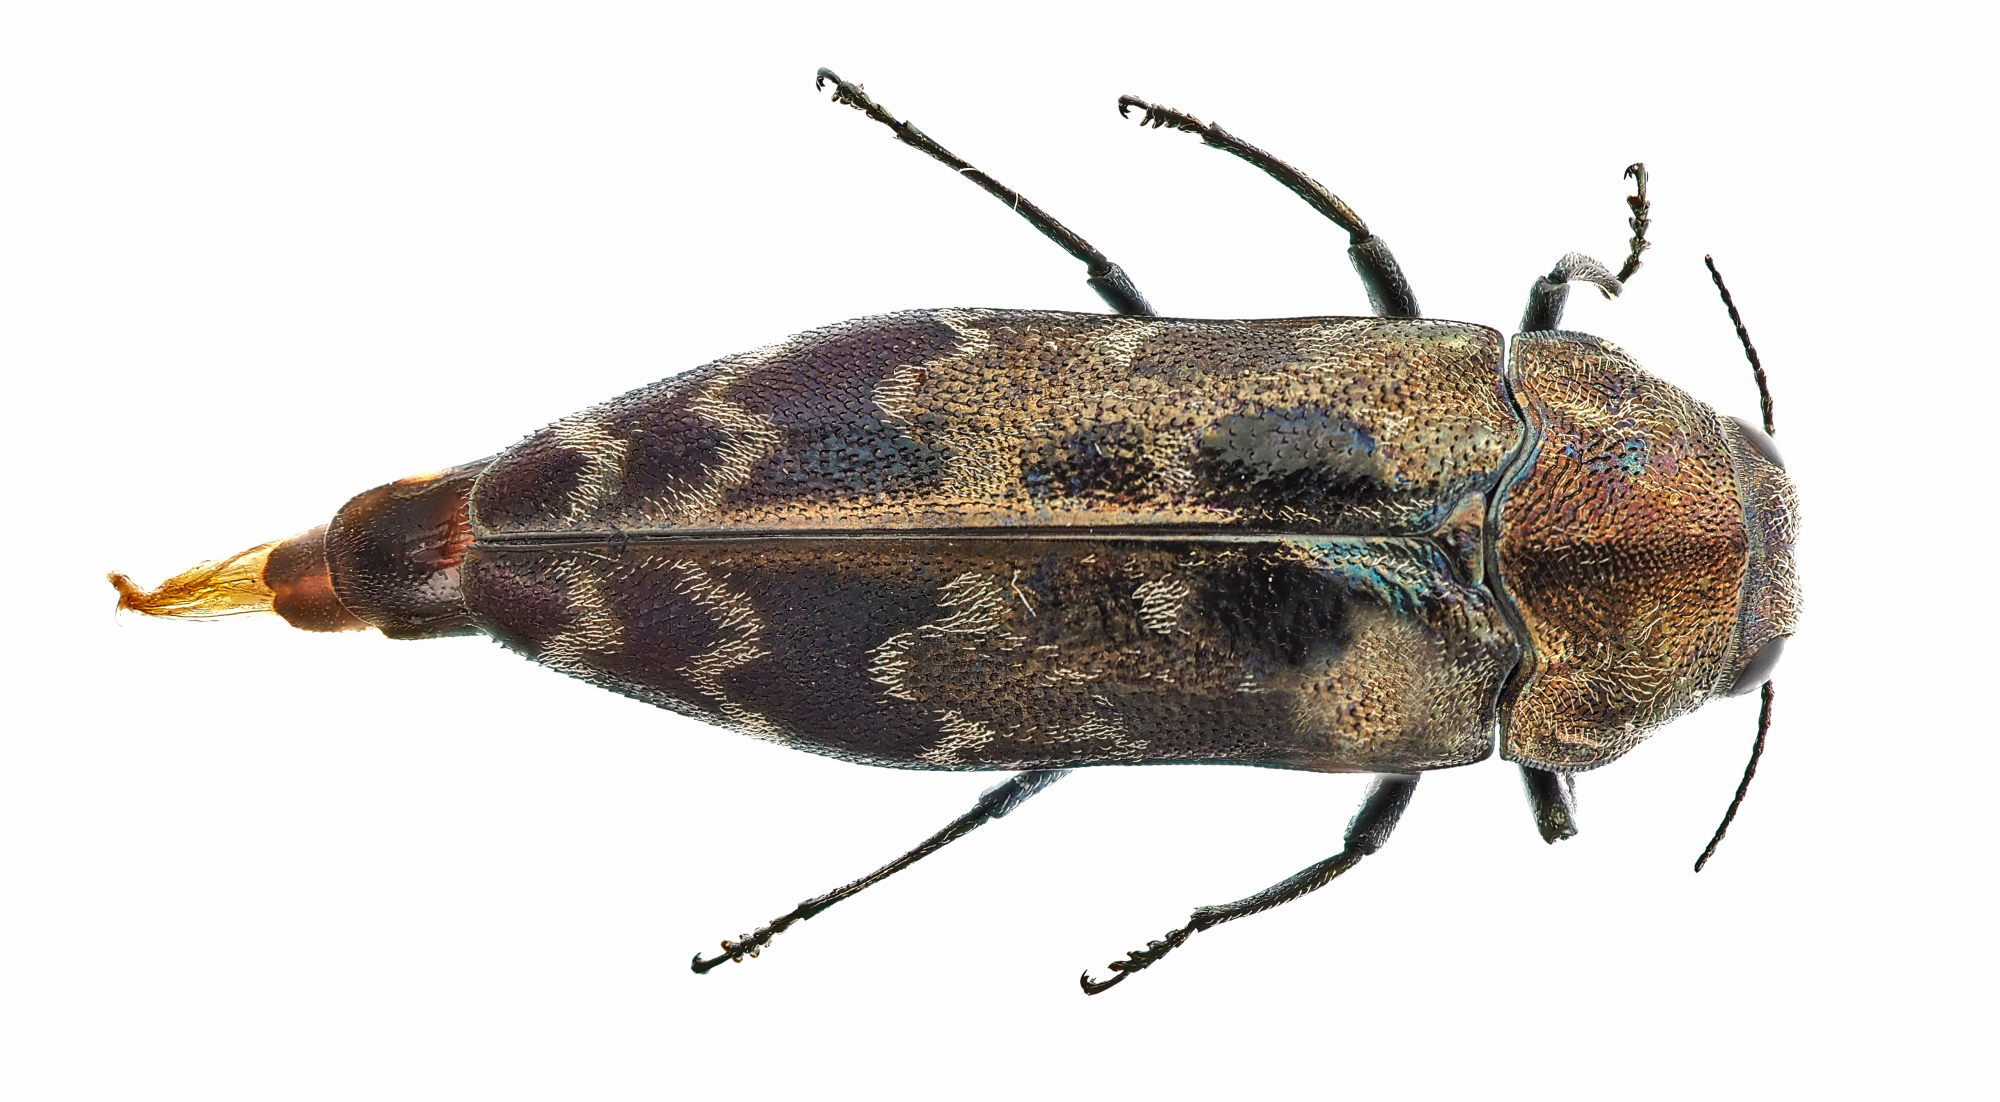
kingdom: Animalia
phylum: Arthropoda
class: Insecta
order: Coleoptera
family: Buprestidae
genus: Coraebus
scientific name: Coraebus undatus
